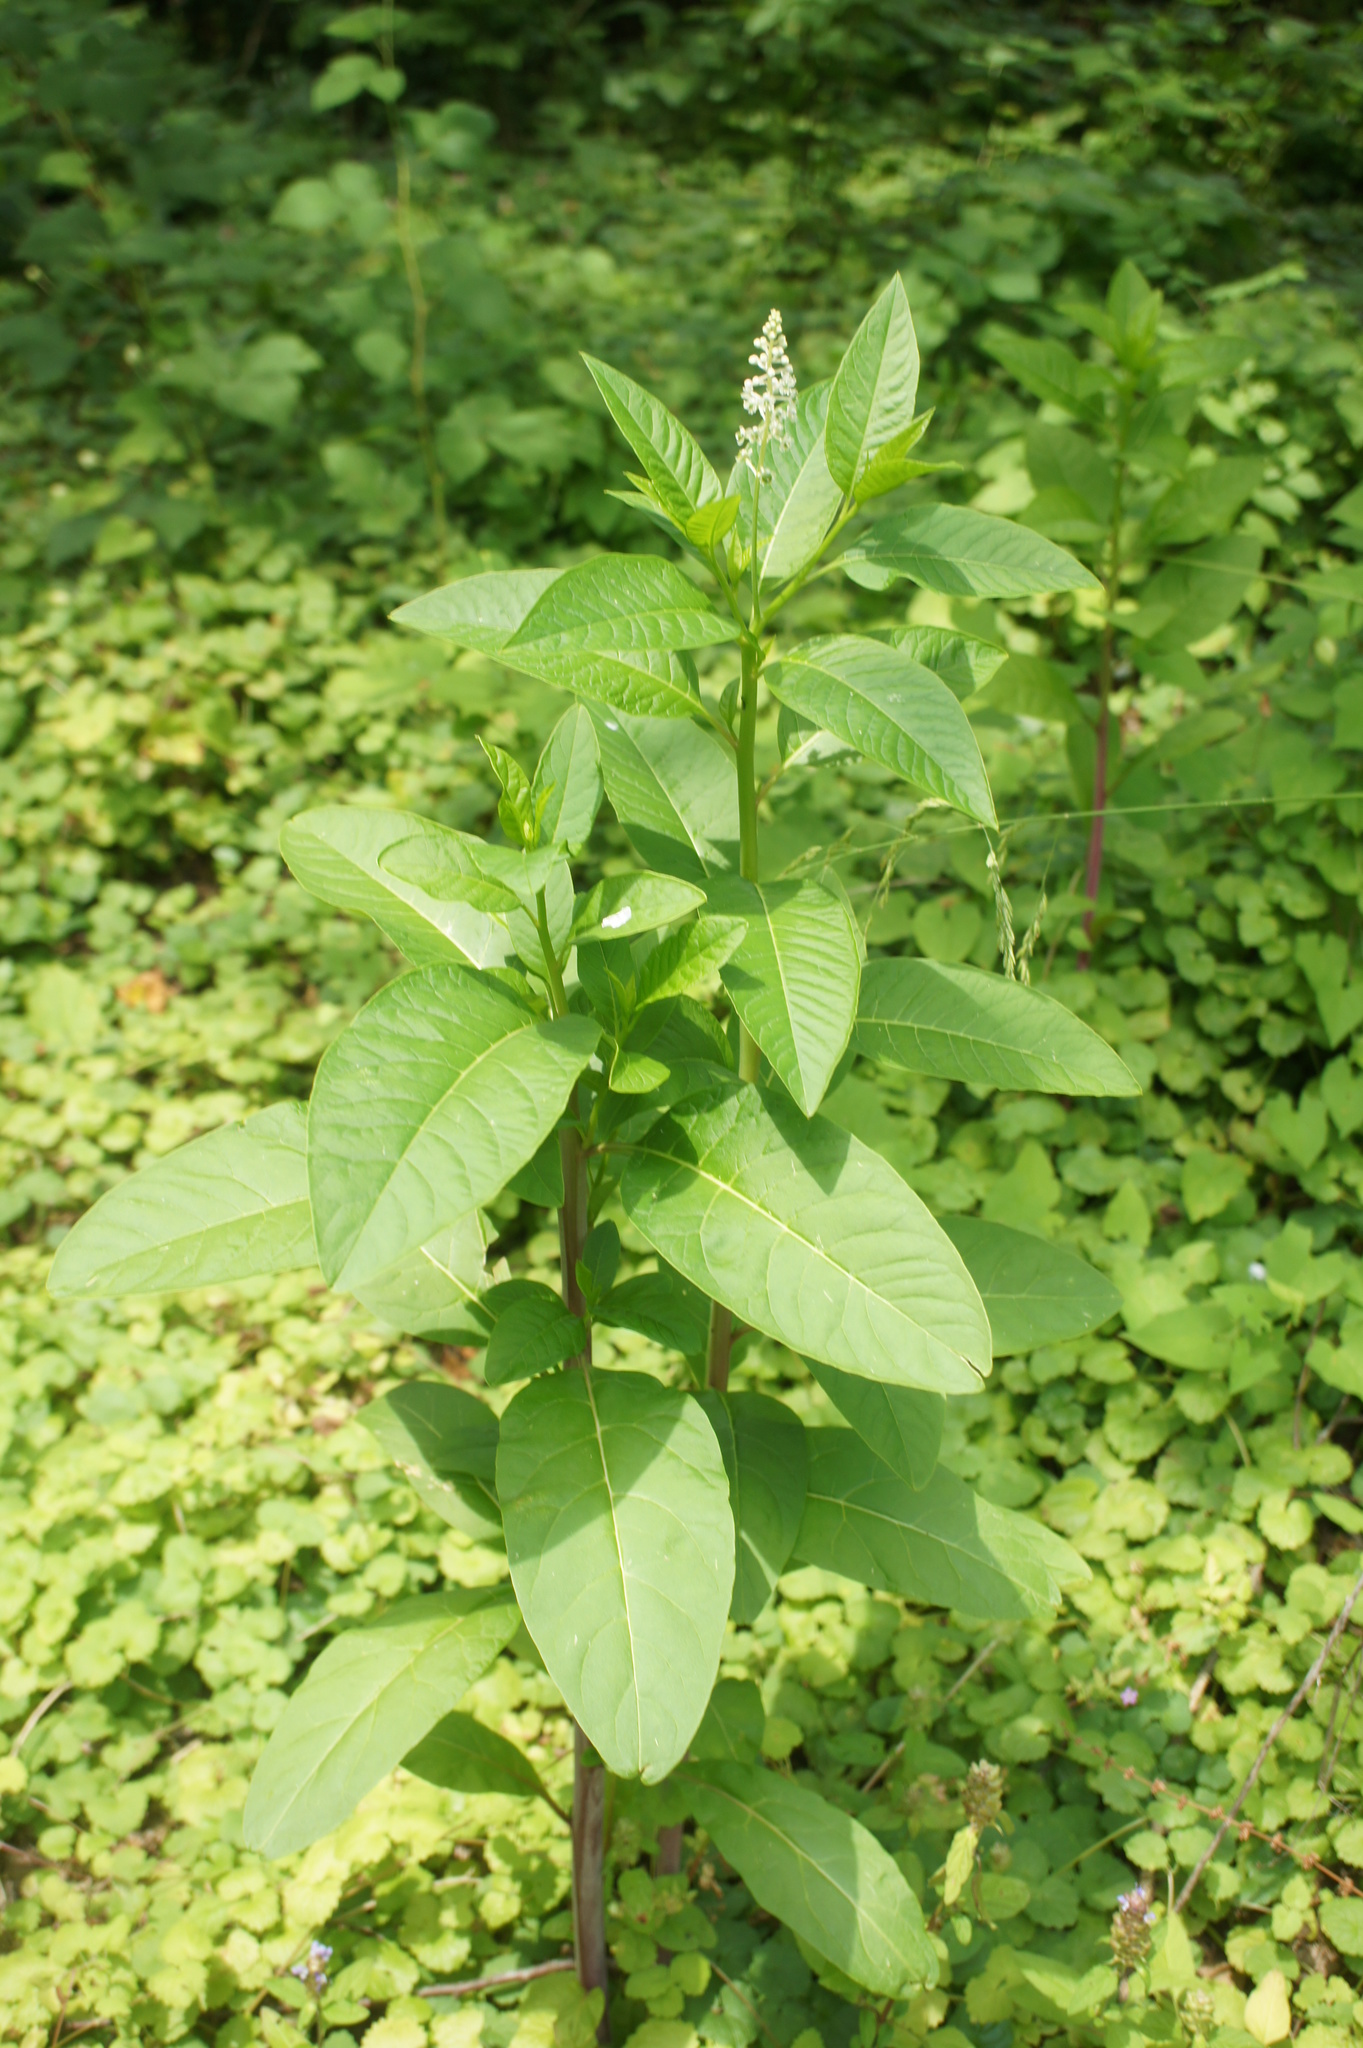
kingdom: Plantae
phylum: Tracheophyta
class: Magnoliopsida
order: Caryophyllales
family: Phytolaccaceae
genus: Phytolacca
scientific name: Phytolacca americana
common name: American pokeweed
